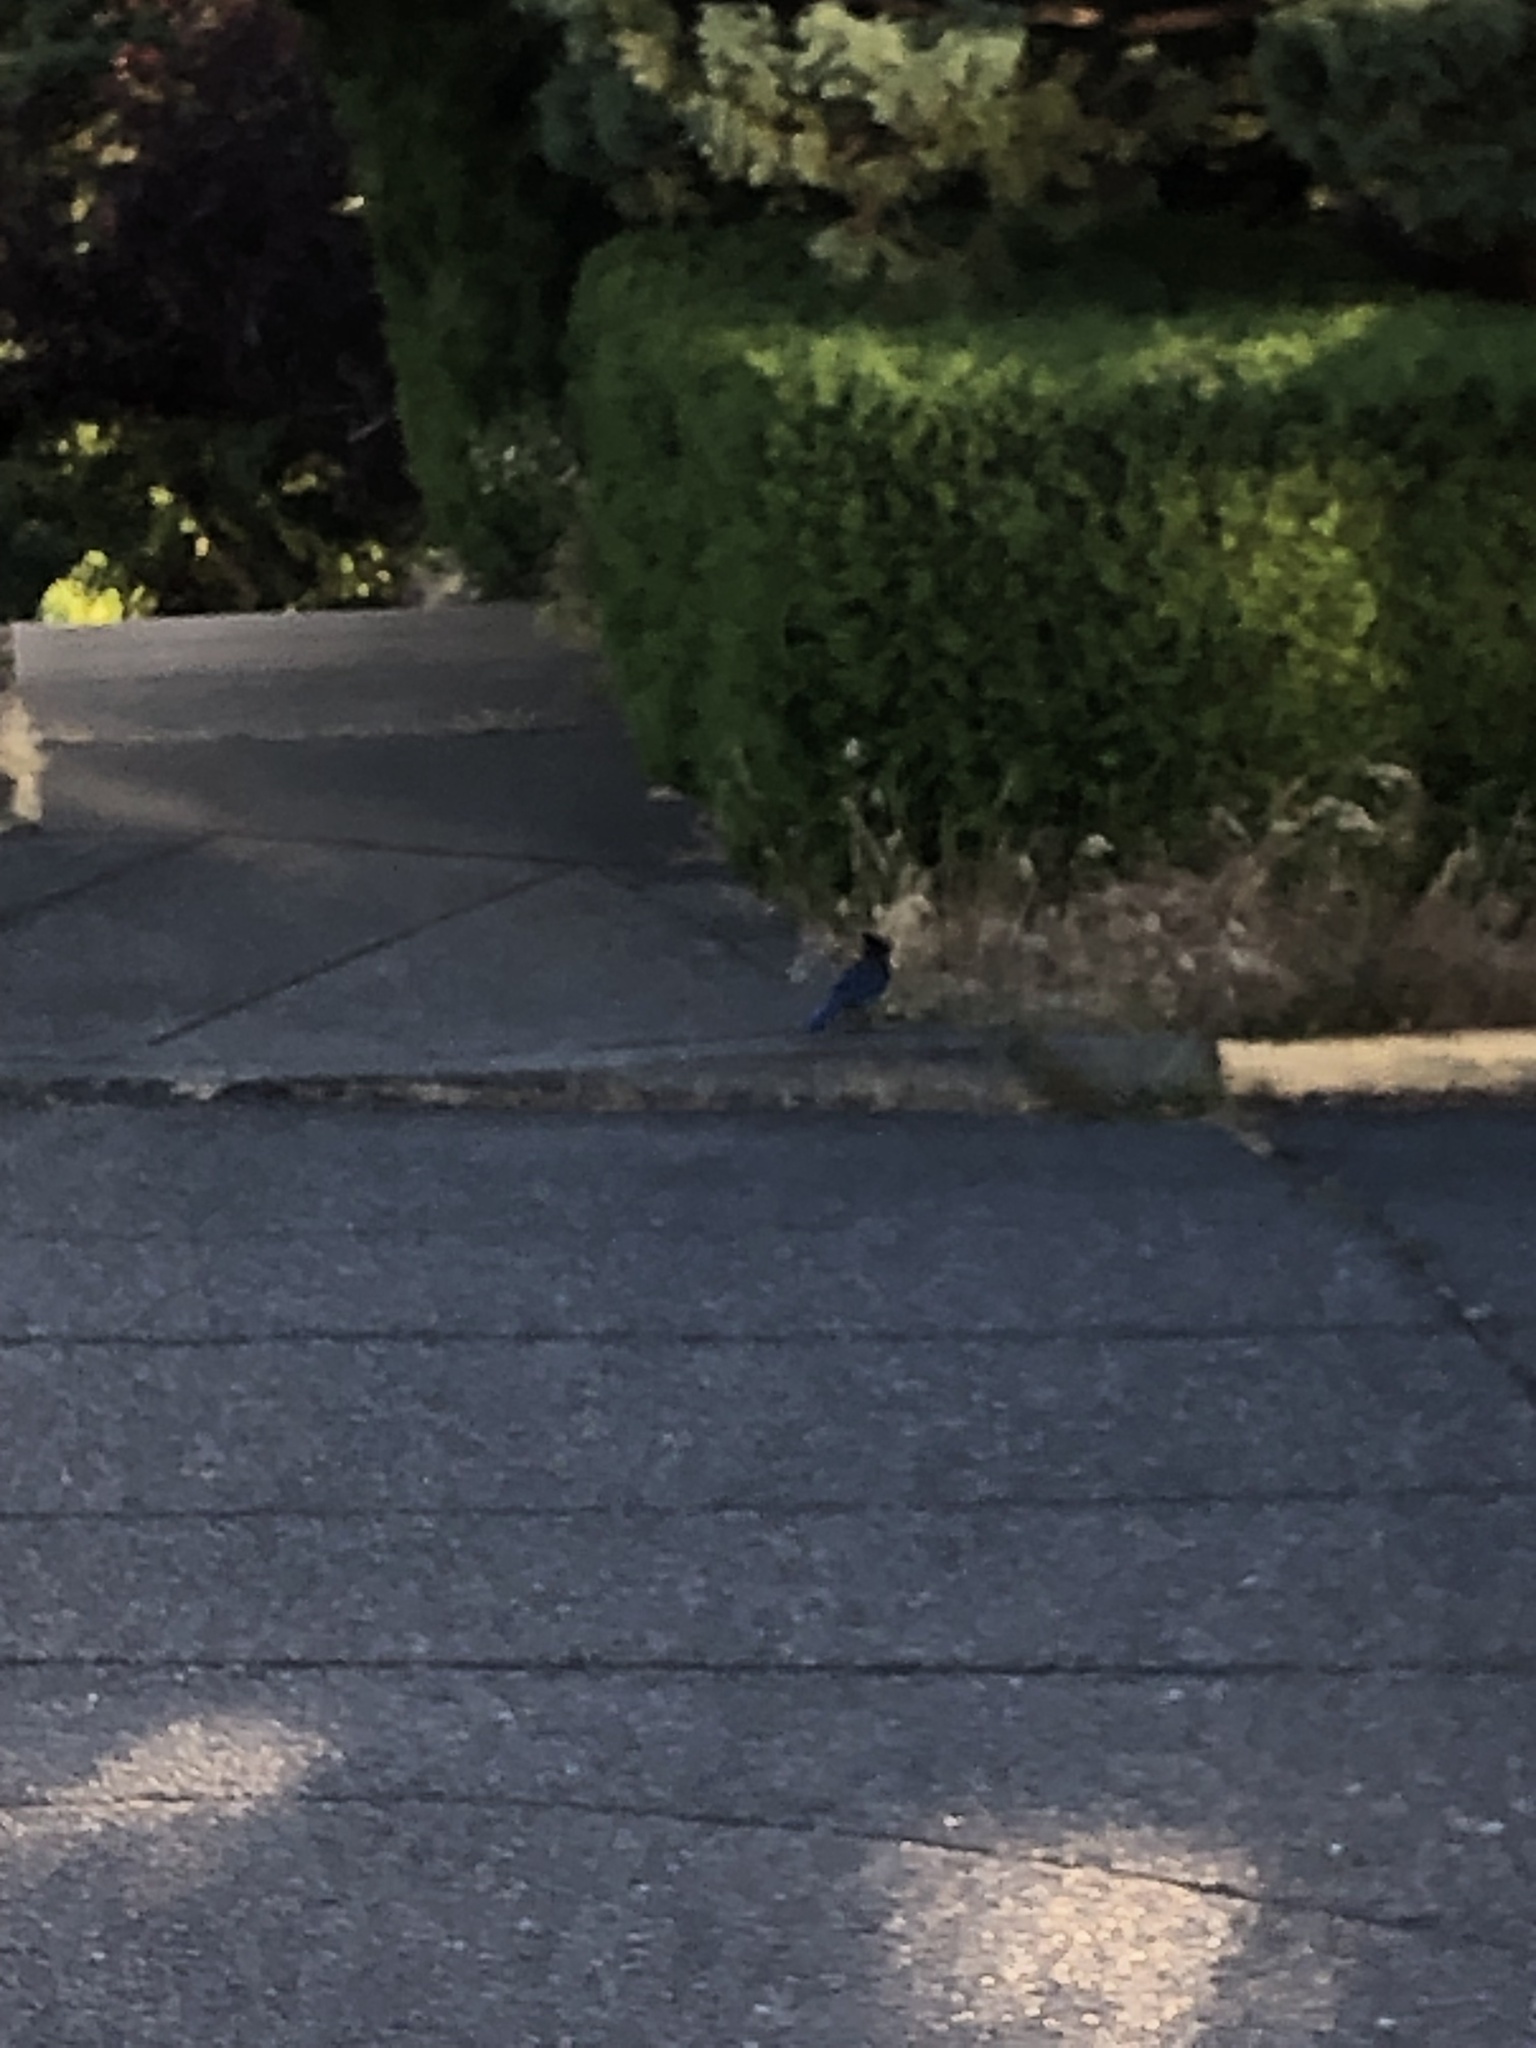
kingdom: Animalia
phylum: Chordata
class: Aves
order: Passeriformes
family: Corvidae
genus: Cyanocitta
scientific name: Cyanocitta stelleri
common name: Steller's jay
